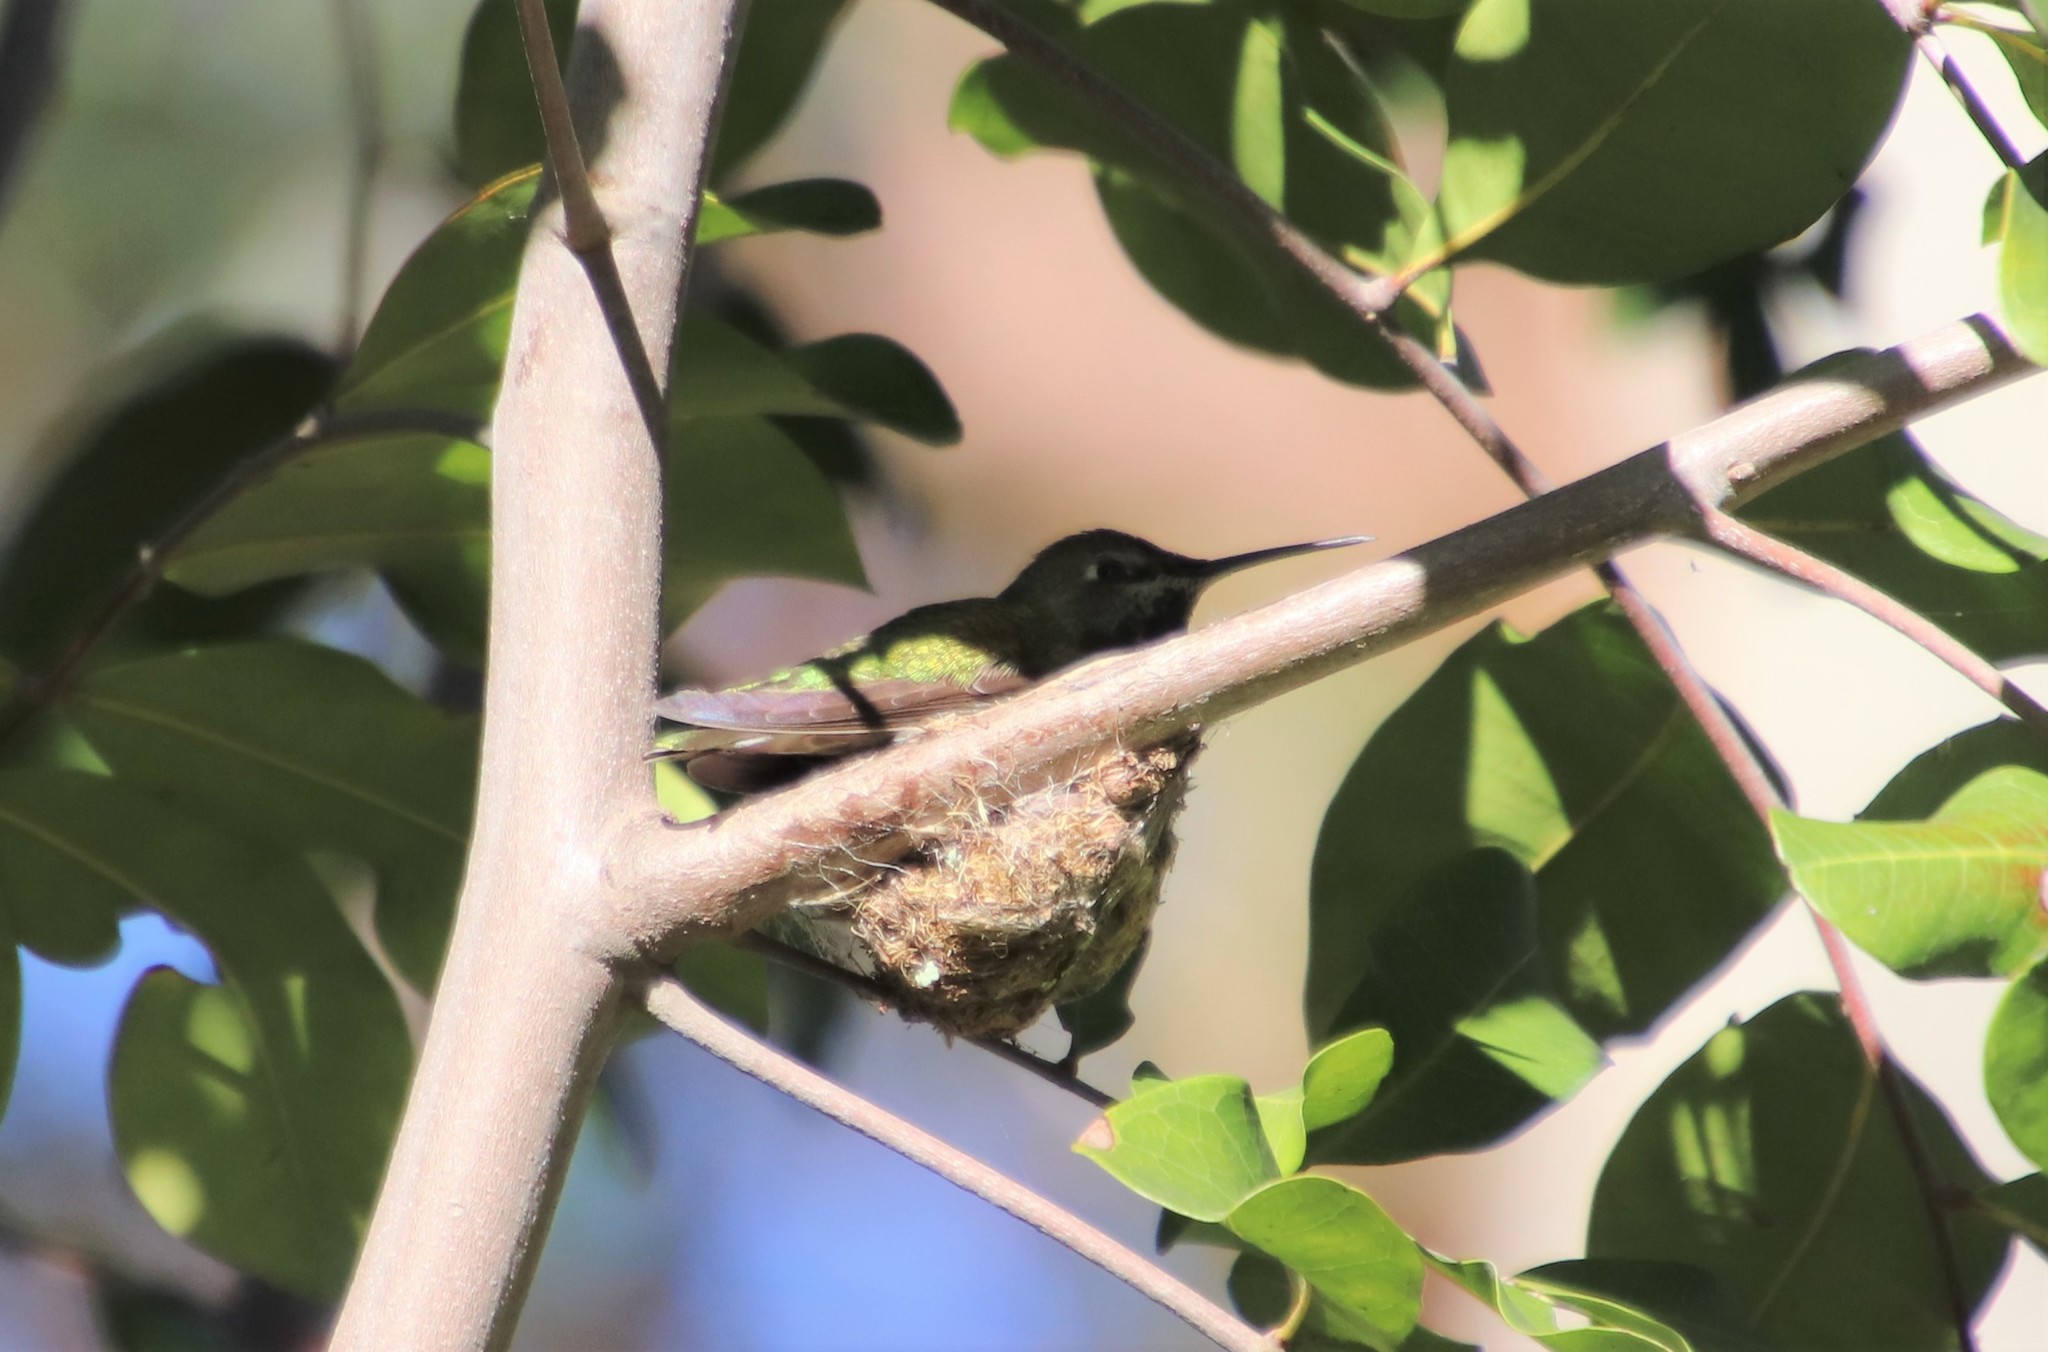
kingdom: Animalia
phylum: Chordata
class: Aves
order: Apodiformes
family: Trochilidae
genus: Calypte
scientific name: Calypte anna
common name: Anna's hummingbird
